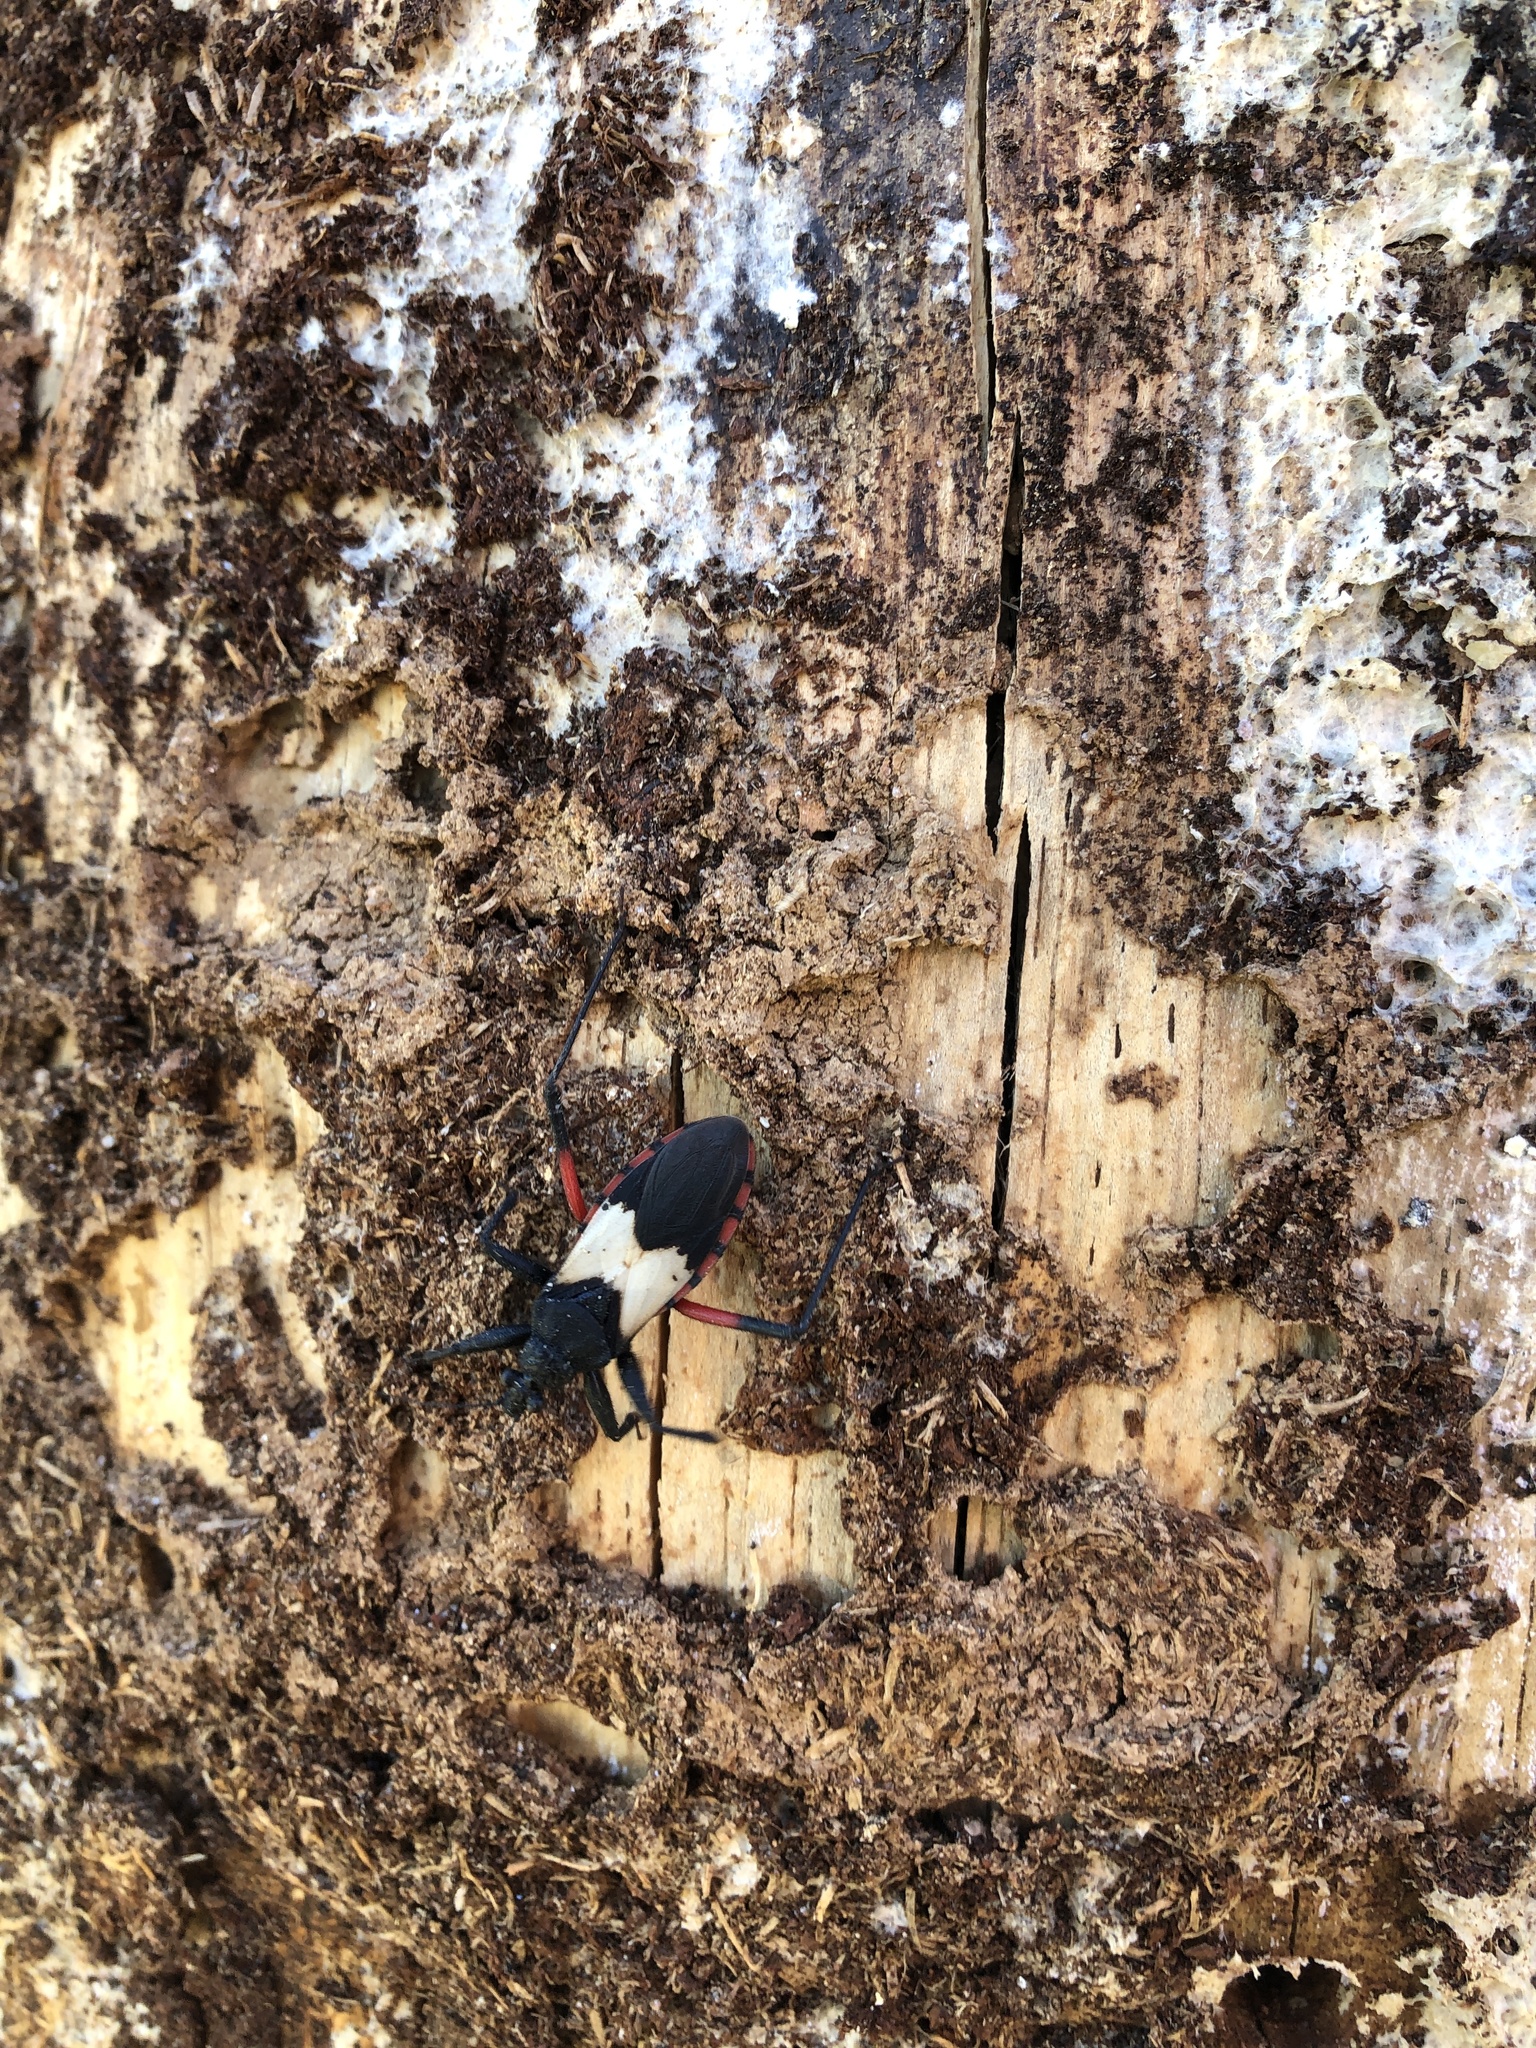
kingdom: Animalia
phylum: Arthropoda
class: Insecta
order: Hemiptera
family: Reduviidae
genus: Microtomus
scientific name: Microtomus purcis
